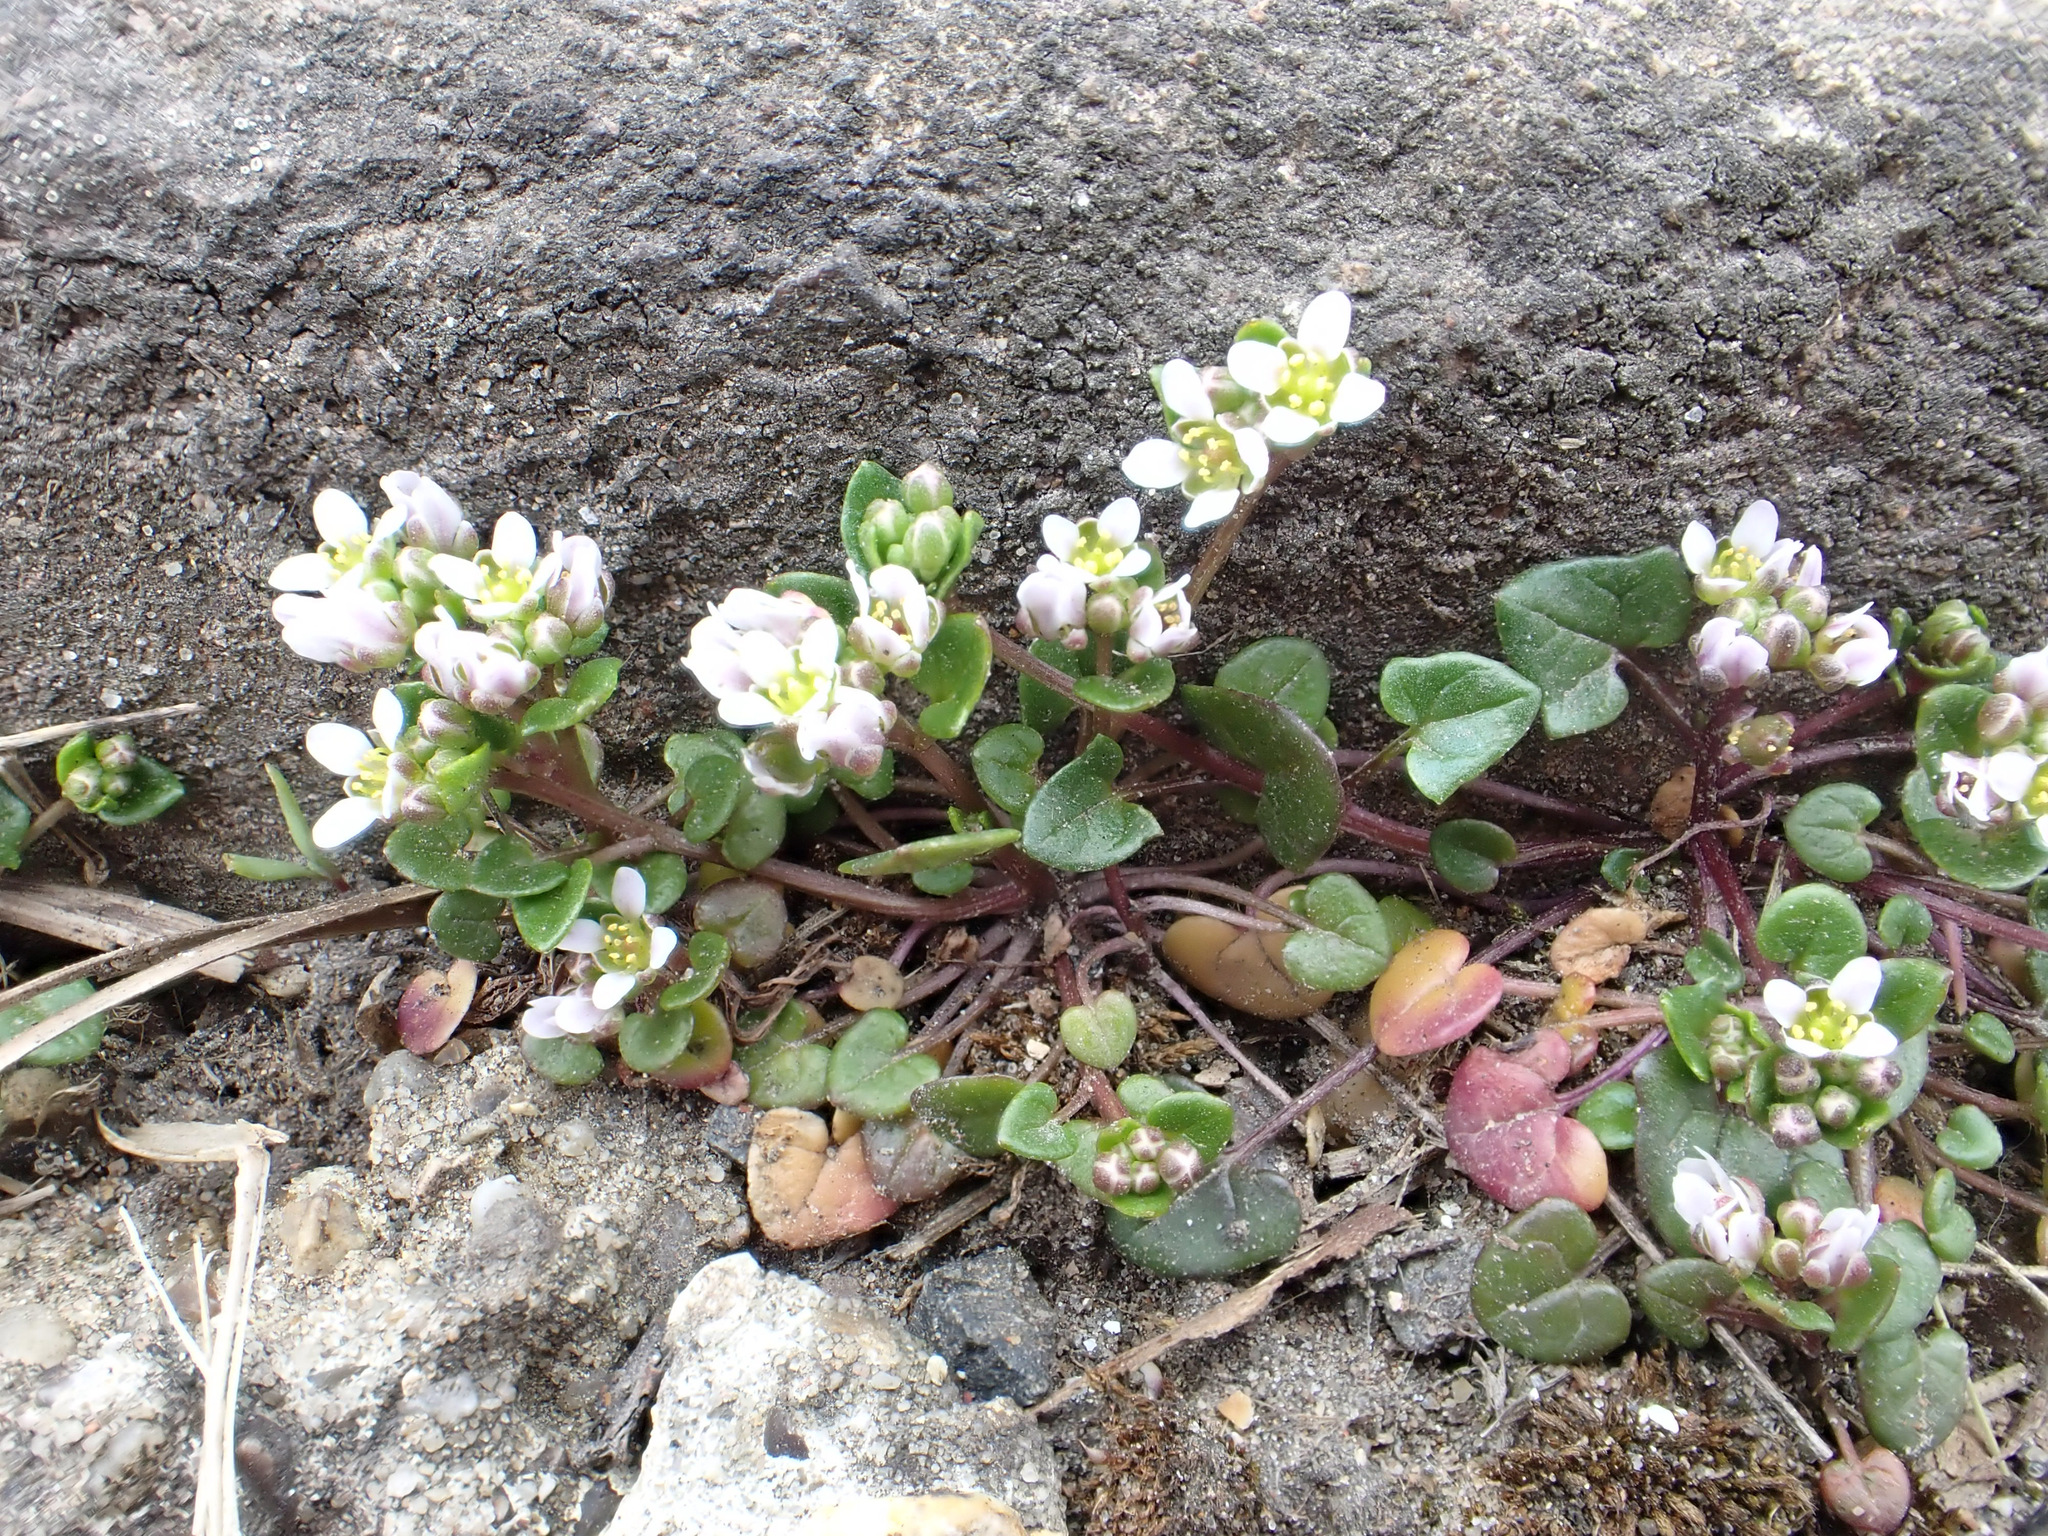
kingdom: Plantae
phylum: Tracheophyta
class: Magnoliopsida
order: Brassicales
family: Brassicaceae
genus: Cochlearia
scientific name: Cochlearia danica
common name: Early scurvygrass
